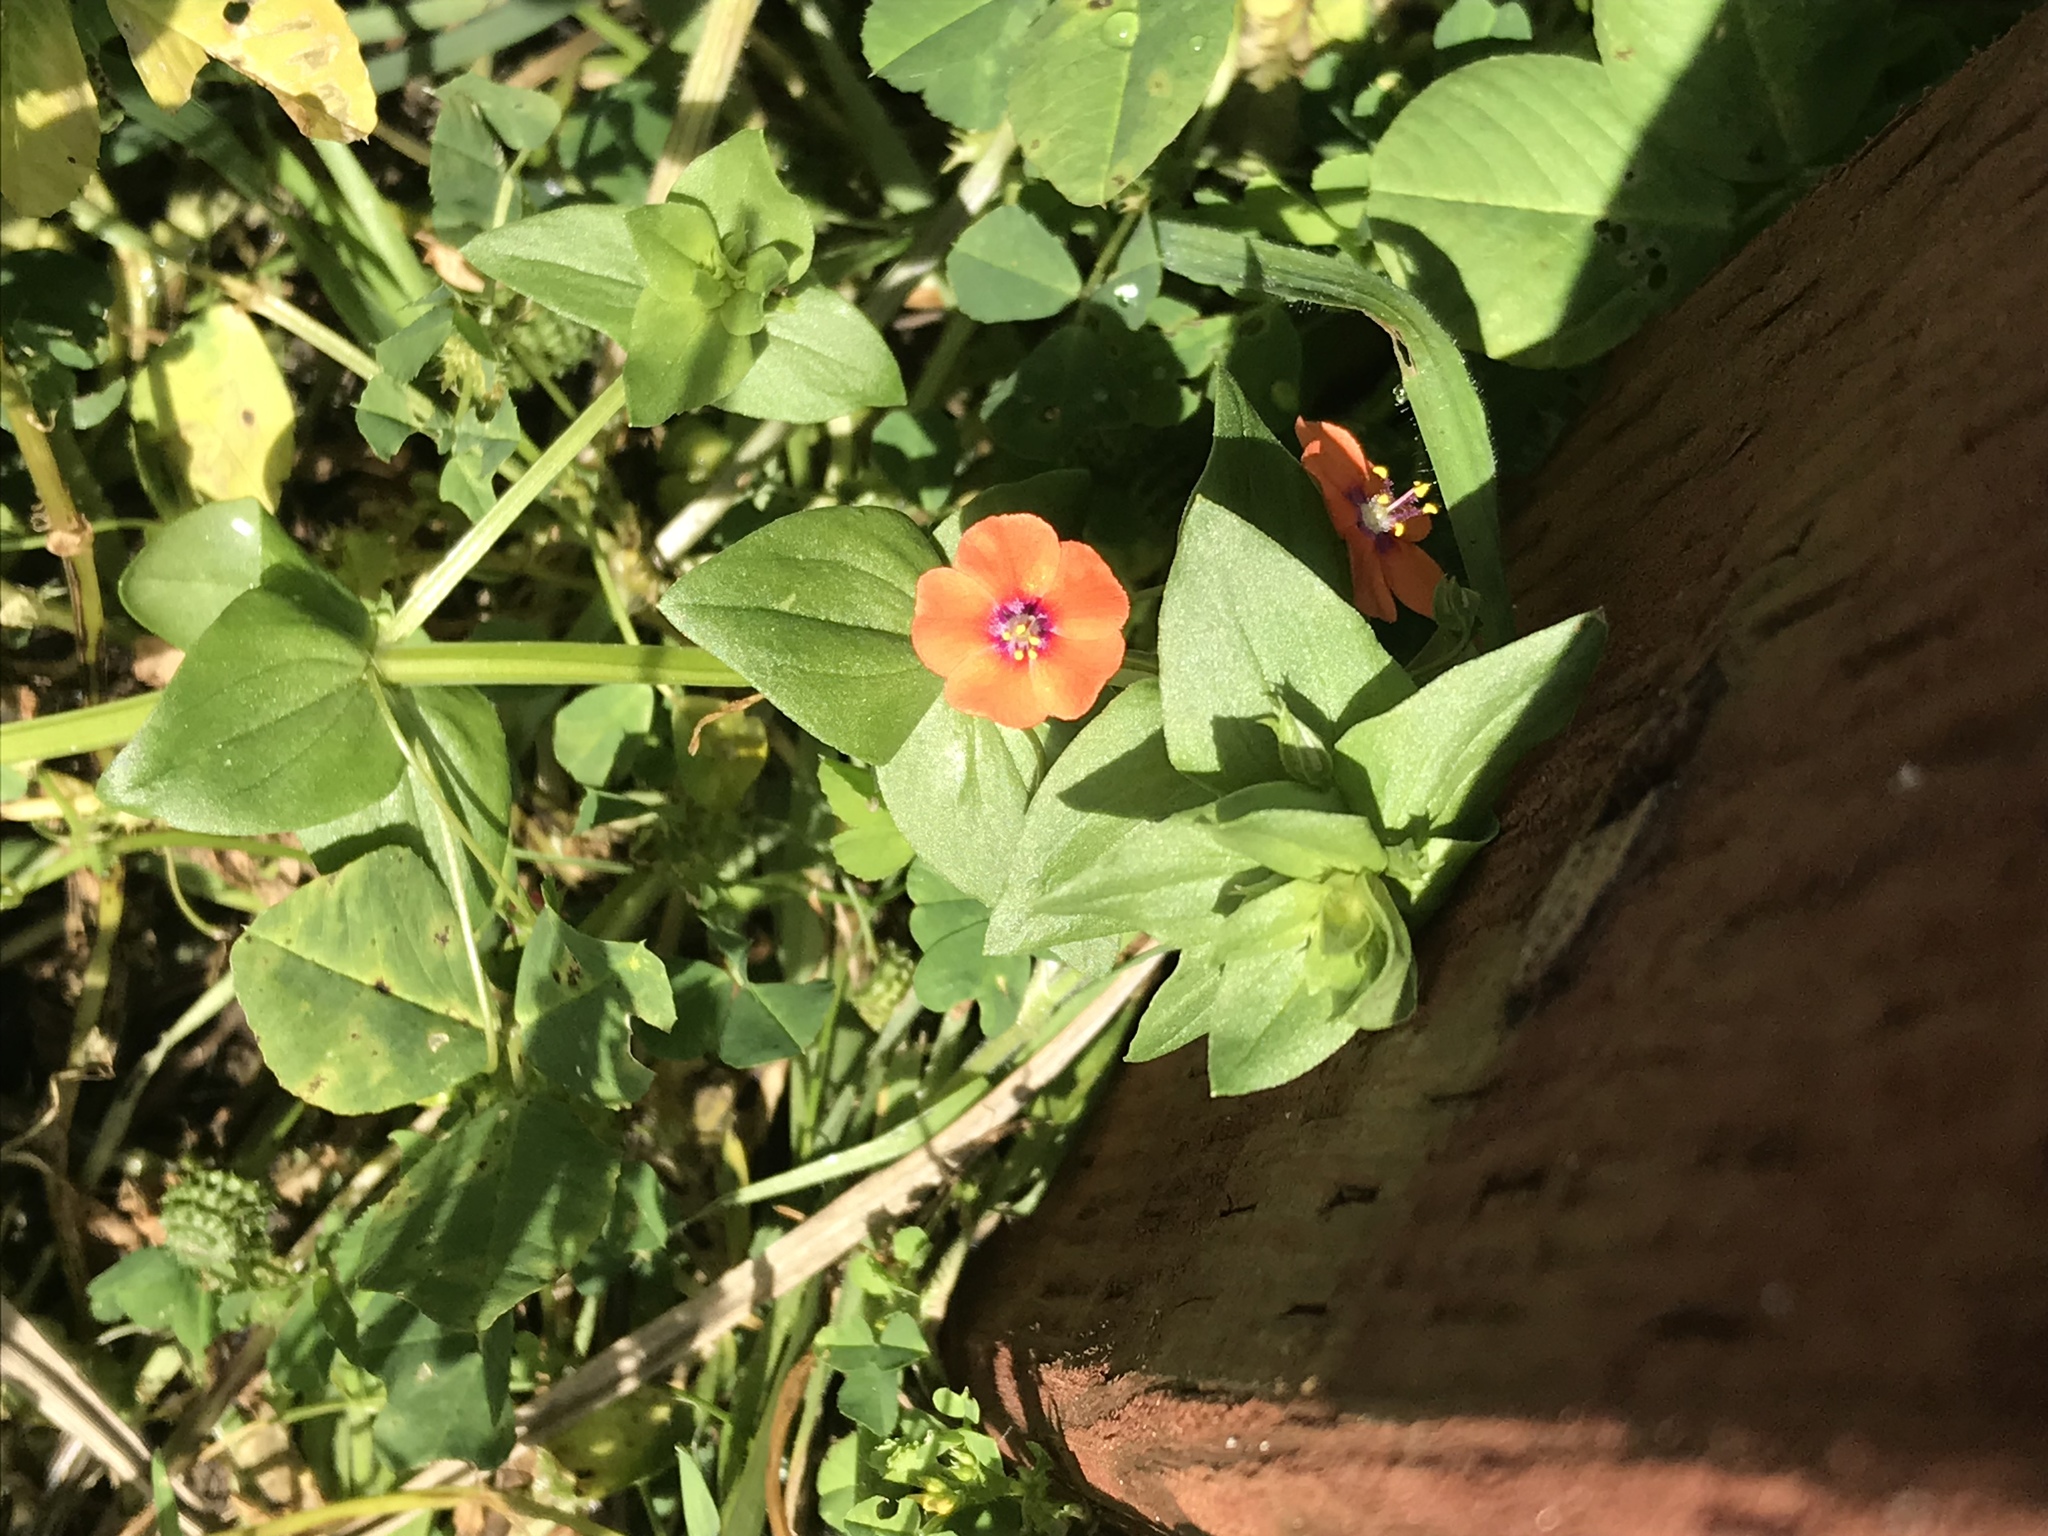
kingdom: Plantae
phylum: Tracheophyta
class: Magnoliopsida
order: Ericales
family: Primulaceae
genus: Lysimachia
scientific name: Lysimachia arvensis
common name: Scarlet pimpernel
